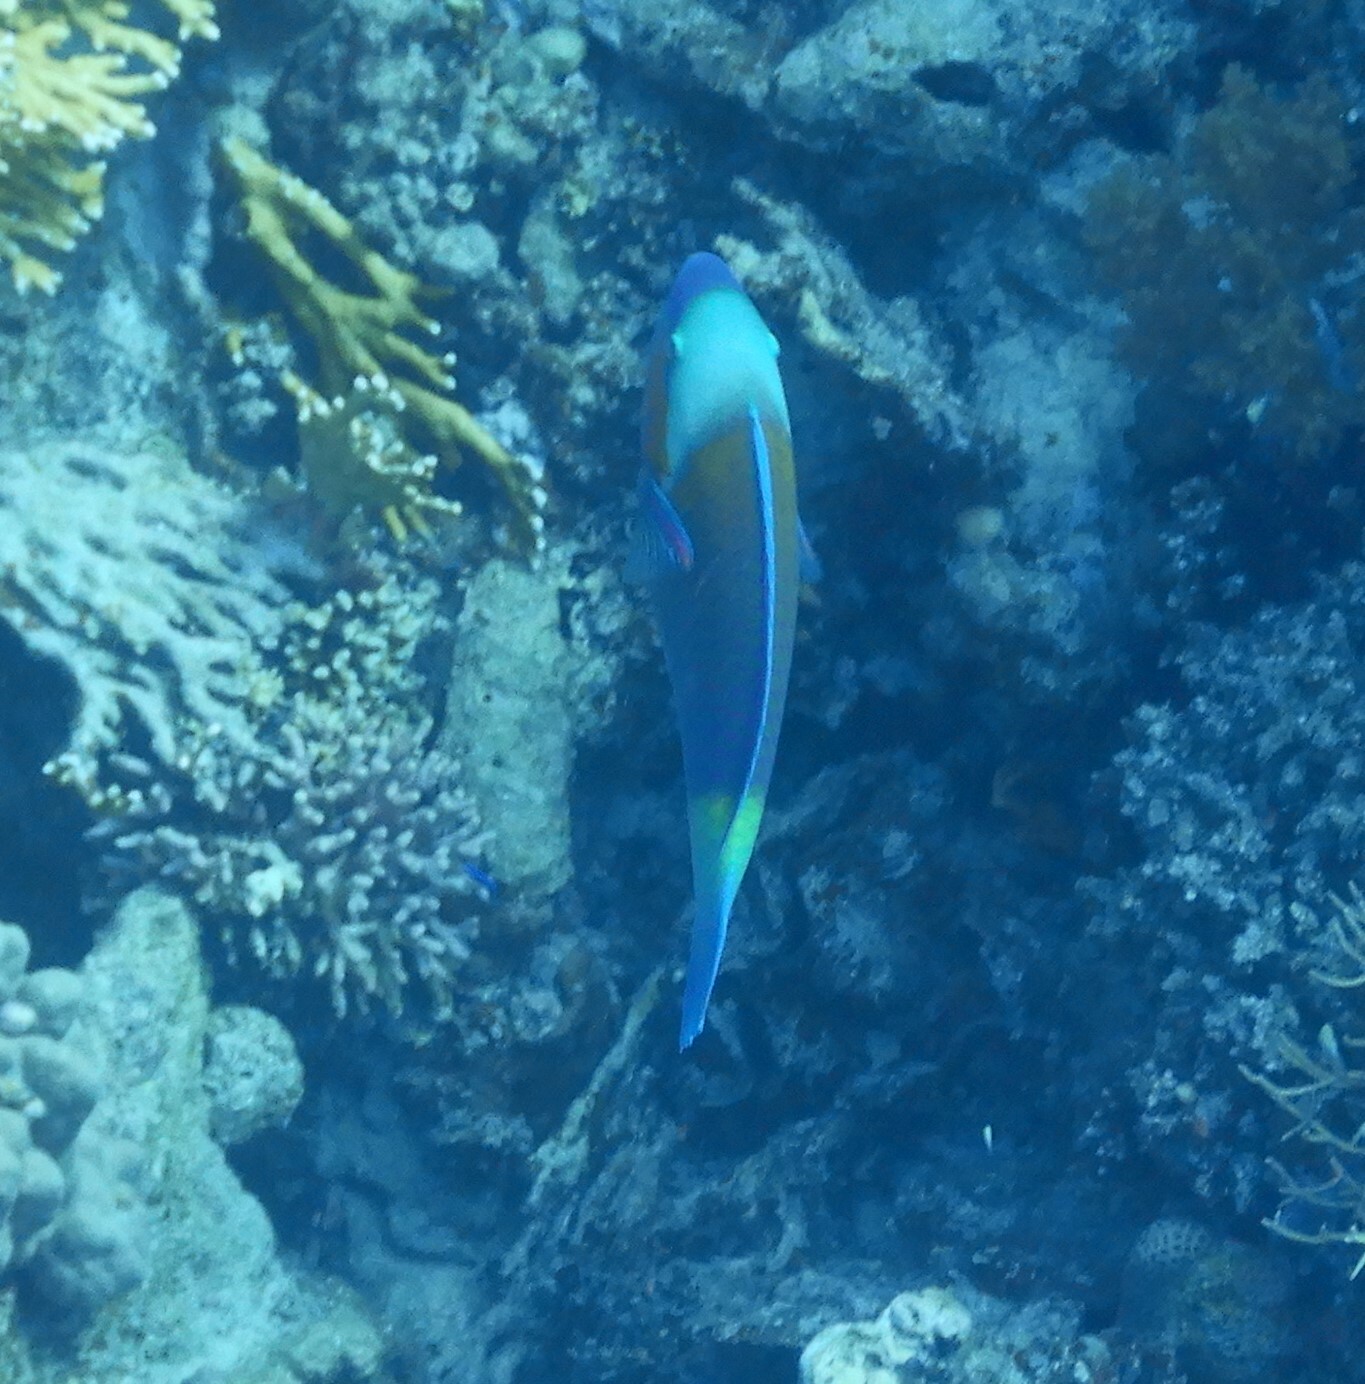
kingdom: Animalia
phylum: Chordata
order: Perciformes
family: Scaridae
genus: Chlorurus
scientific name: Chlorurus sordidus
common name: Bullethead parrotfish
